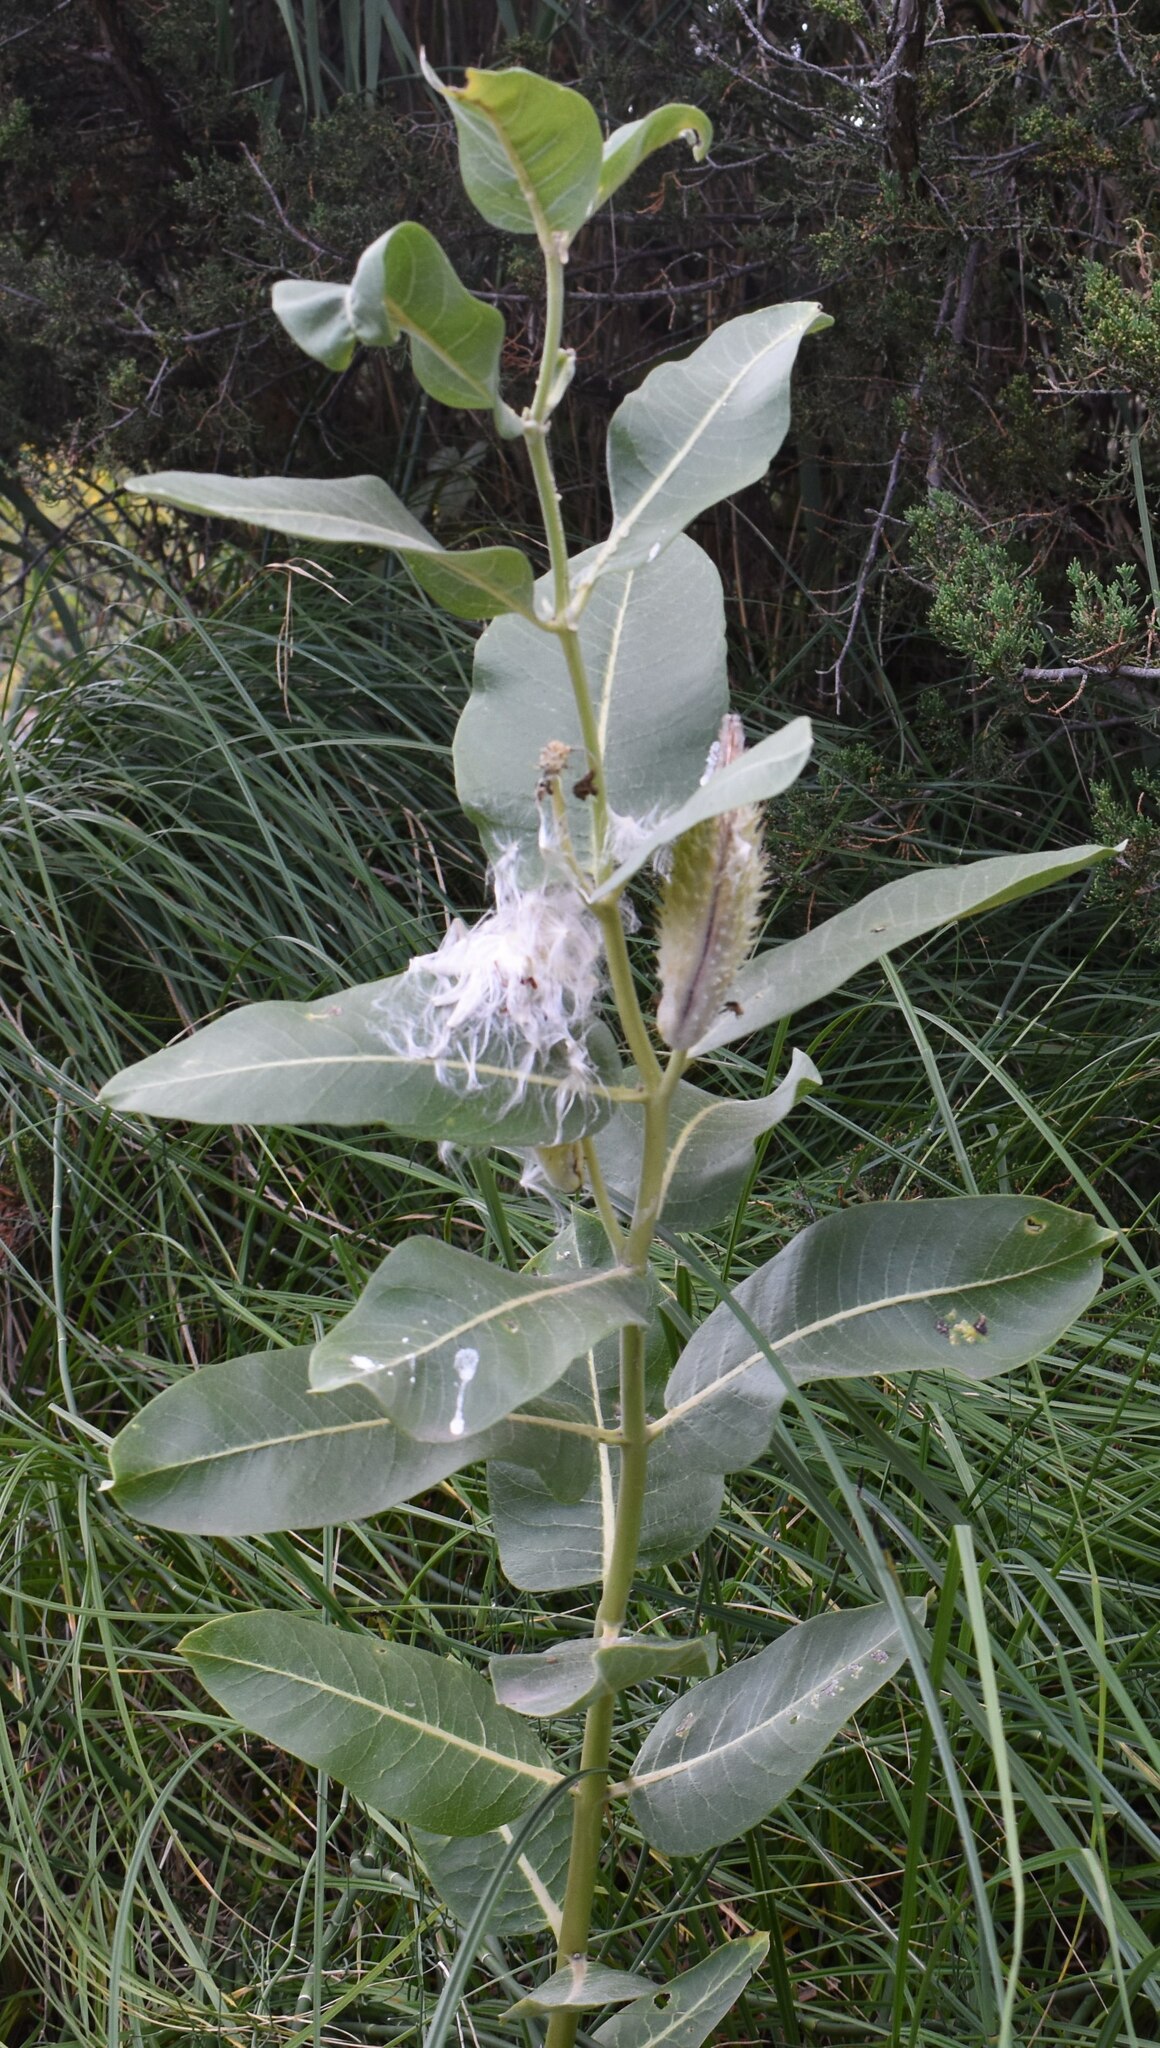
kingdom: Plantae
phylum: Tracheophyta
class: Magnoliopsida
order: Gentianales
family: Apocynaceae
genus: Asclepias
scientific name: Asclepias speciosa
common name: Showy milkweed
